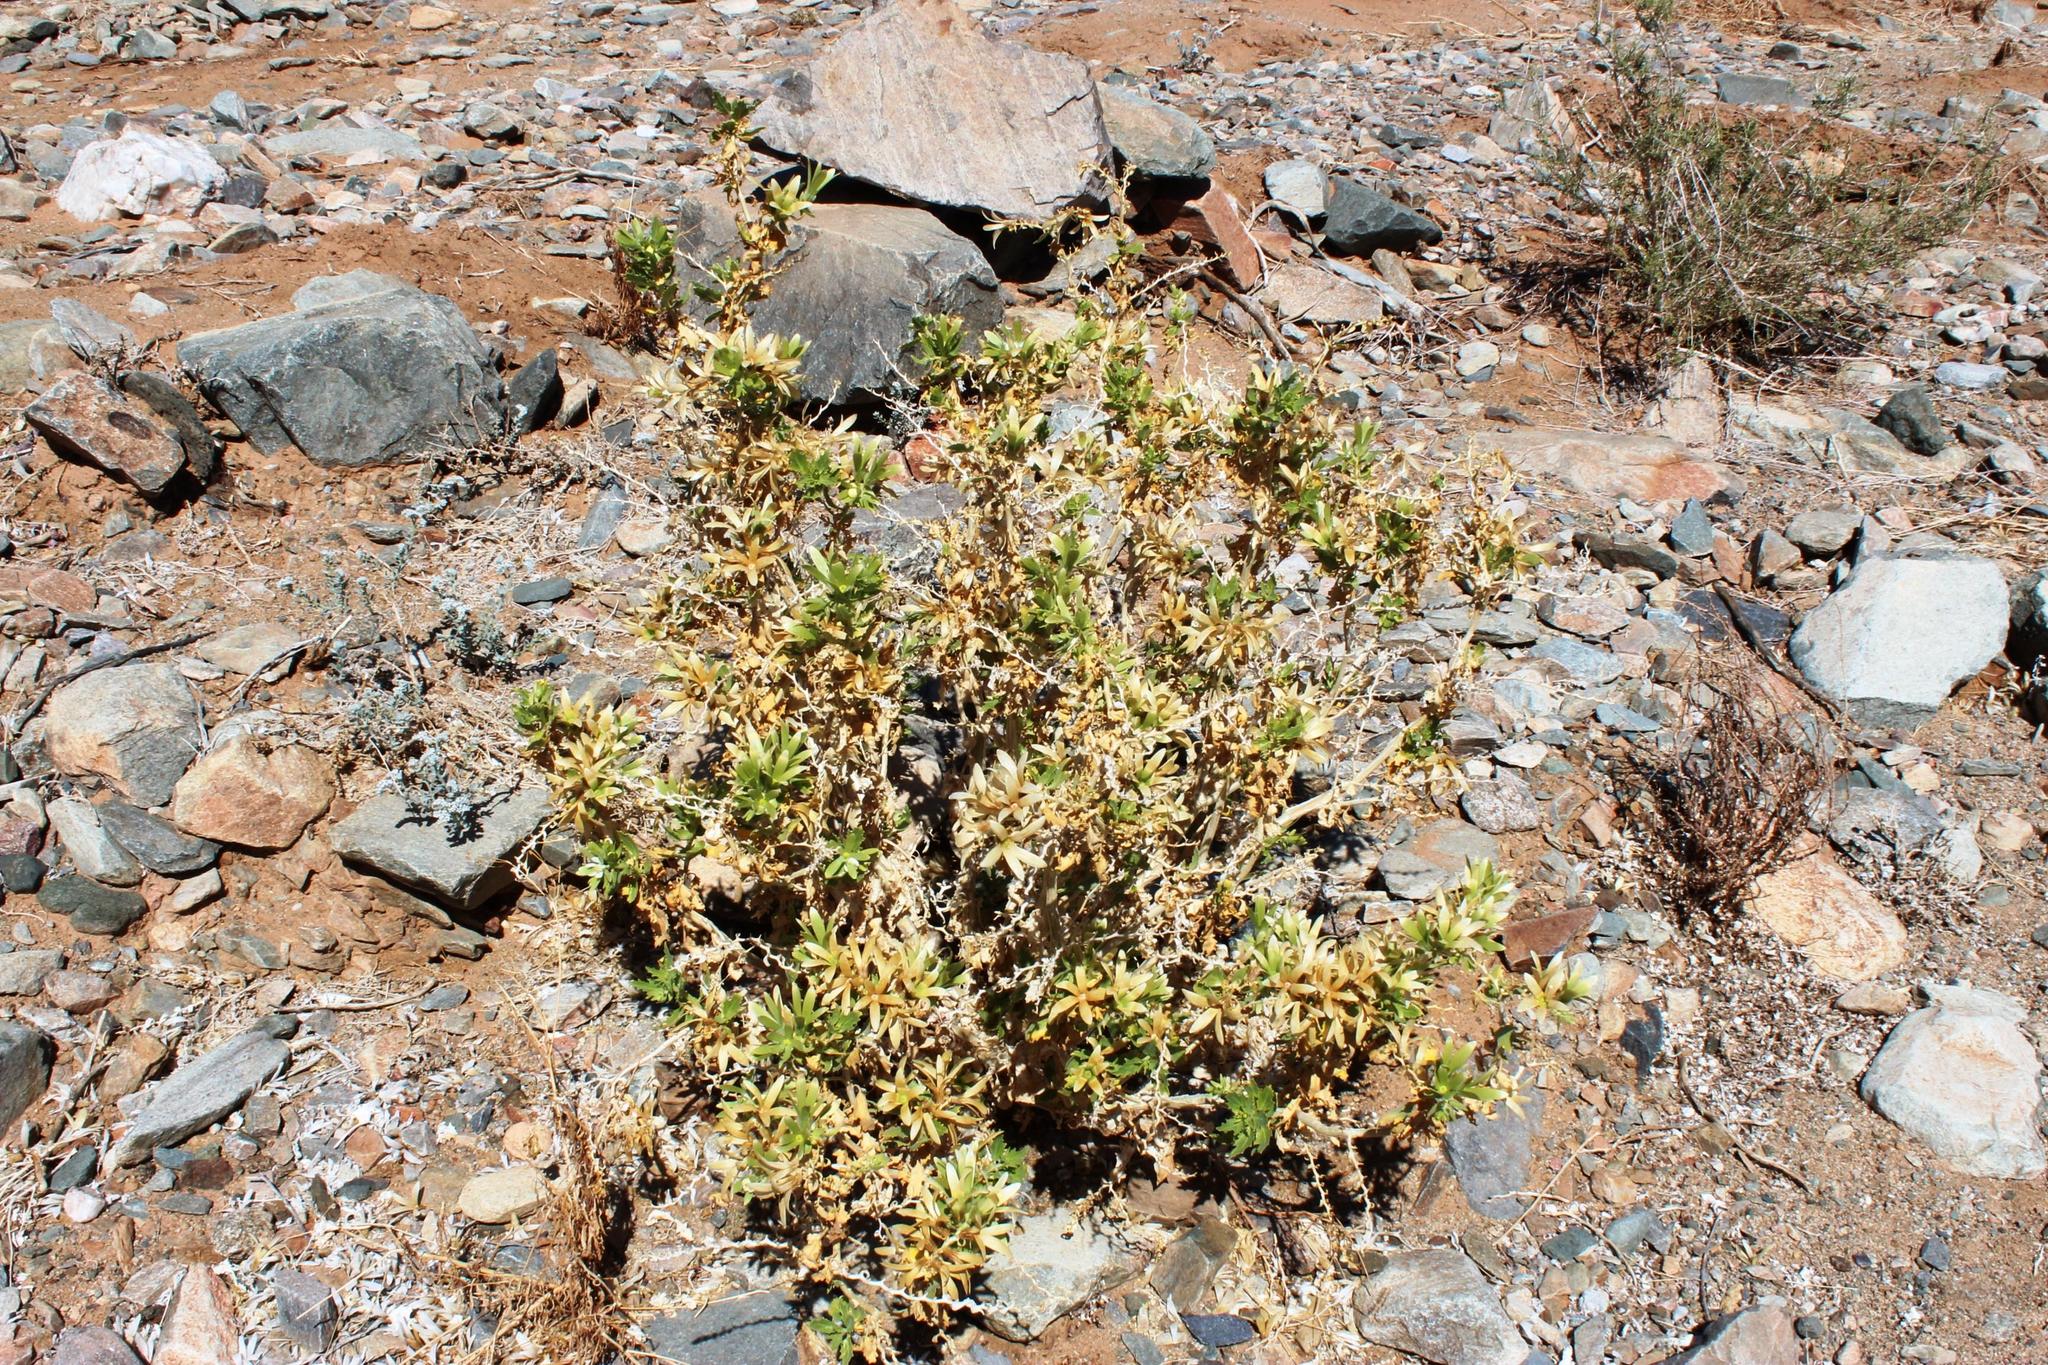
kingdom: Plantae
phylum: Tracheophyta
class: Magnoliopsida
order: Cornales
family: Loasaceae
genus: Kissenia
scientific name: Kissenia capensis
